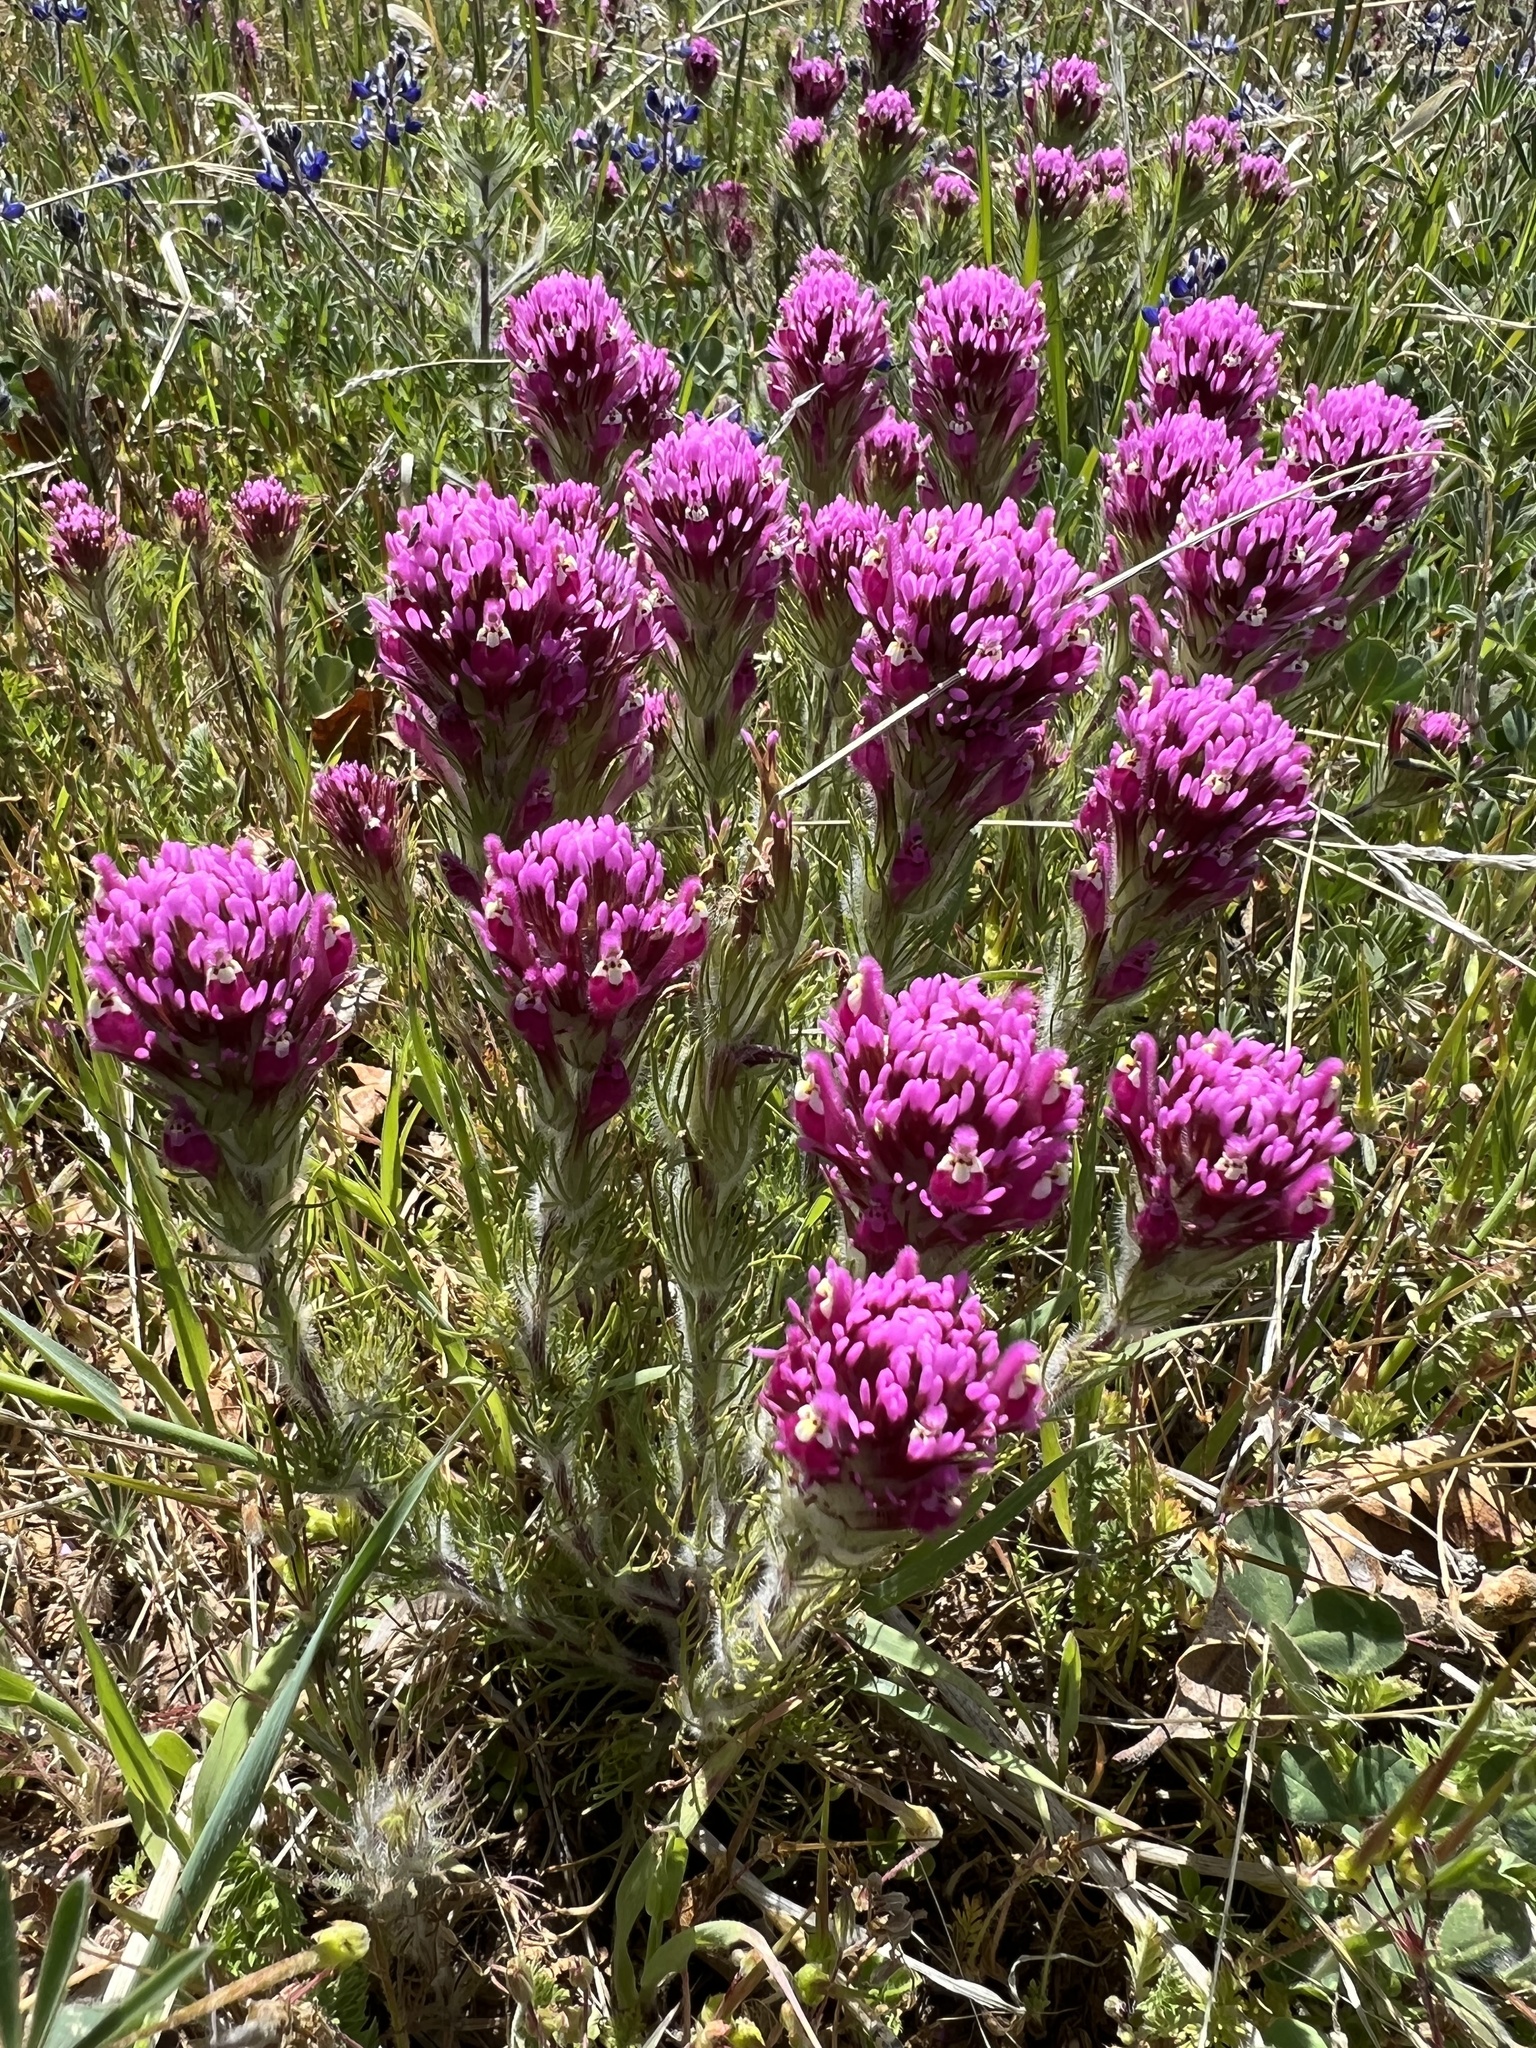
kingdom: Plantae
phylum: Tracheophyta
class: Magnoliopsida
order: Lamiales
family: Orobanchaceae
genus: Castilleja
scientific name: Castilleja exserta
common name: Purple owl-clover
